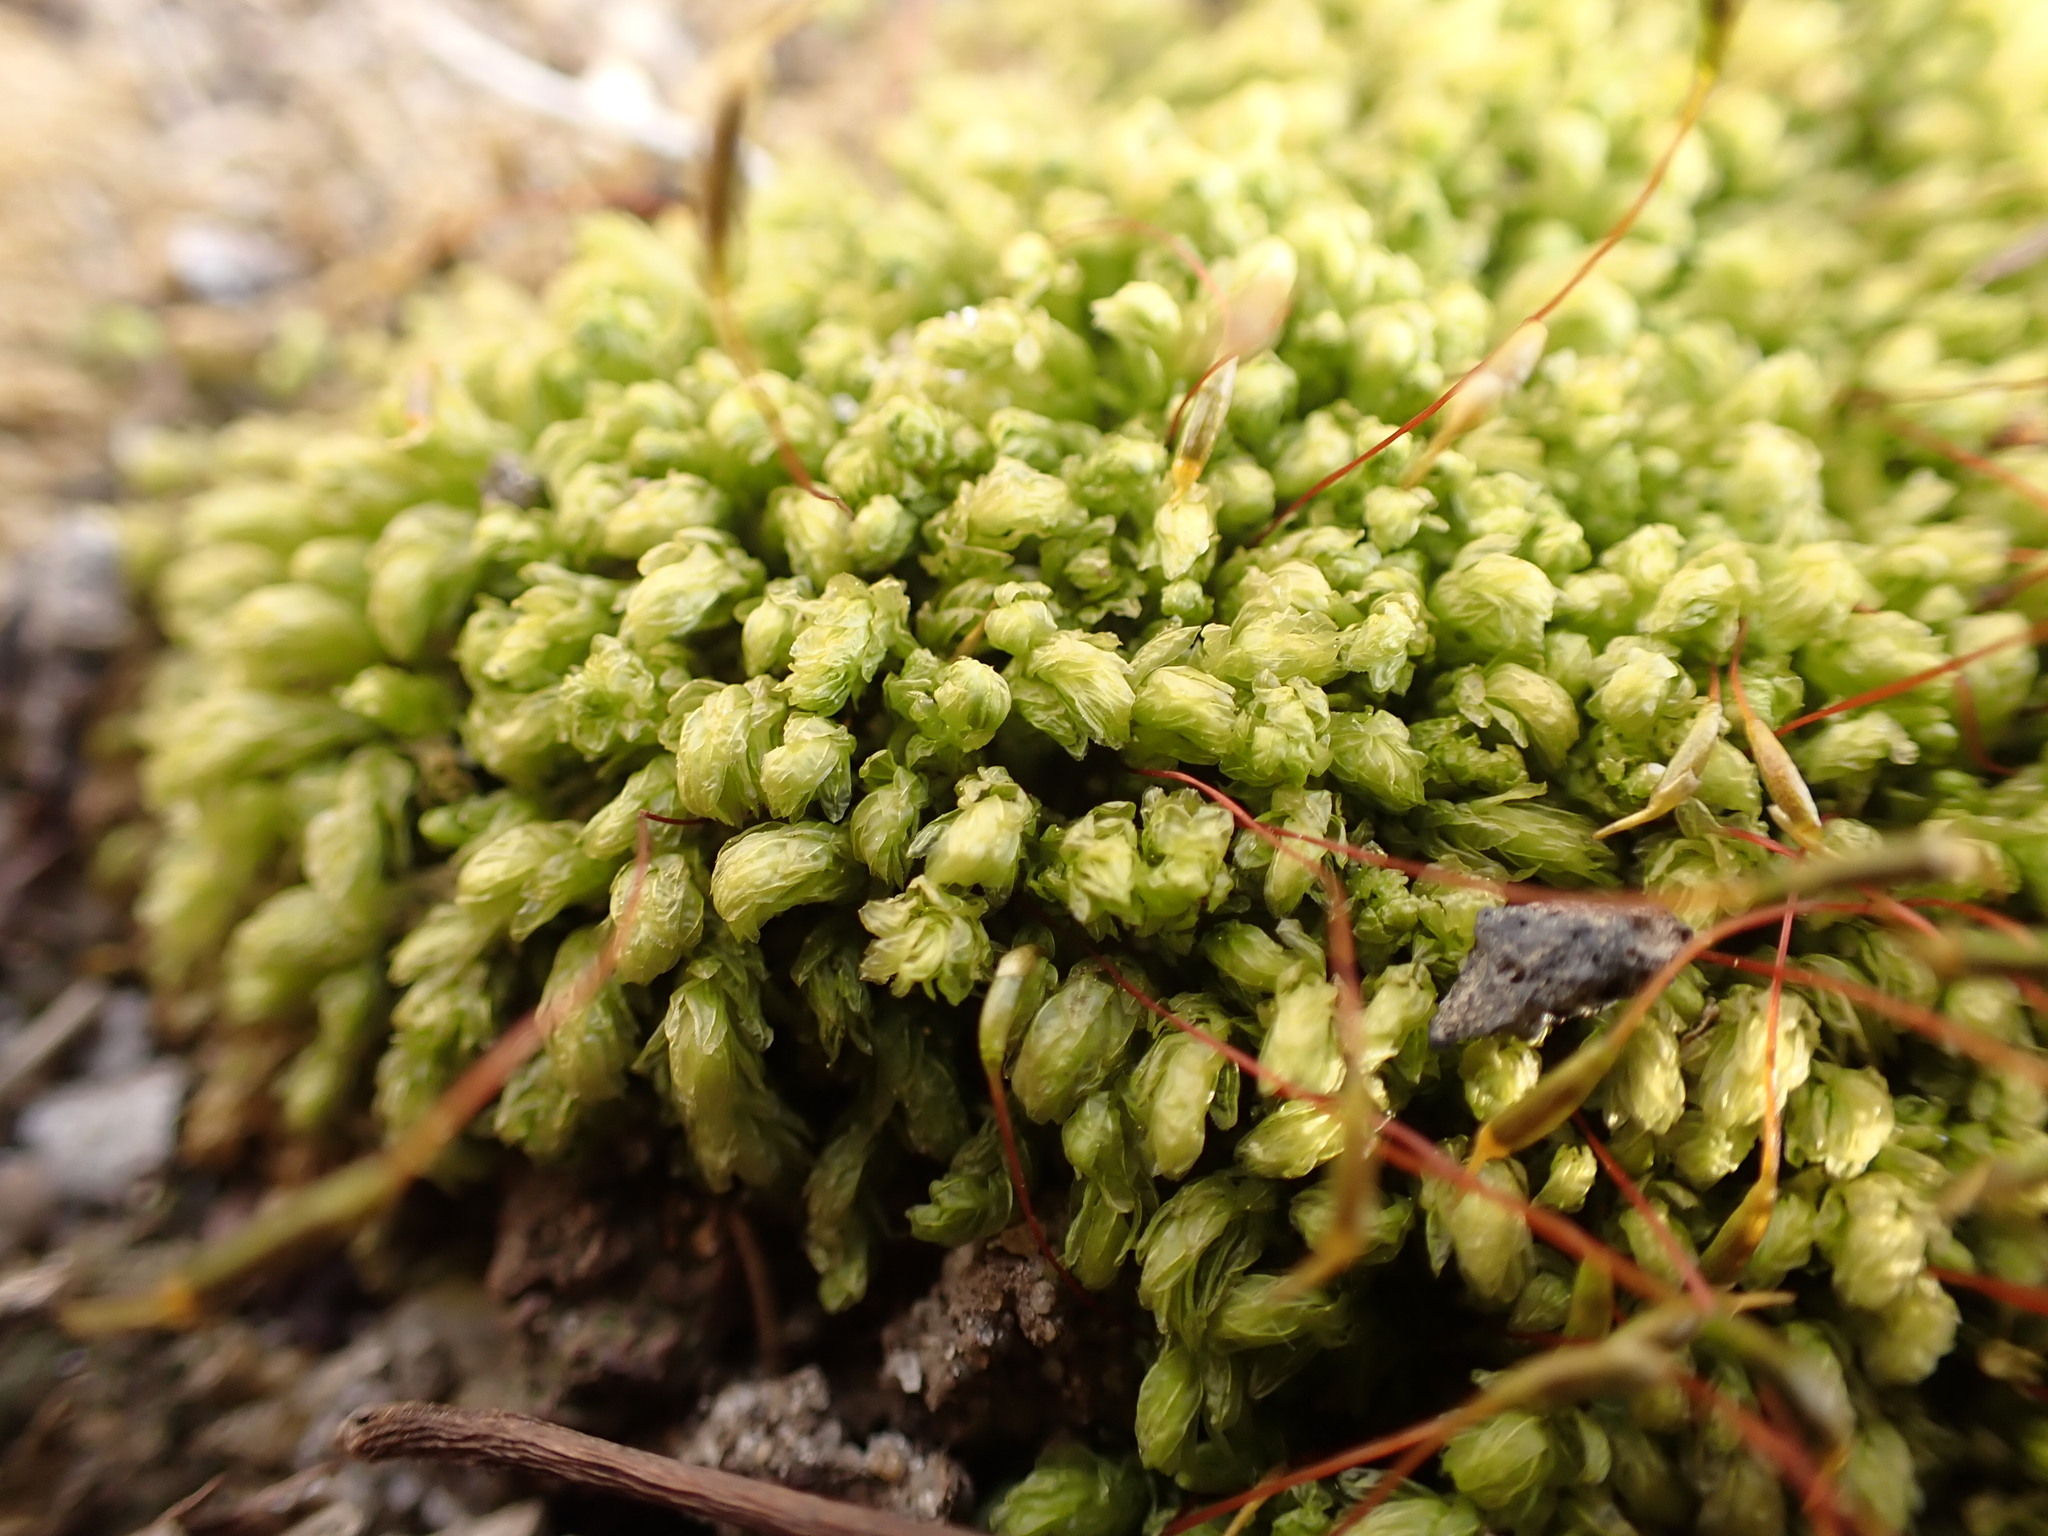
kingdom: Plantae
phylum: Bryophyta
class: Bryopsida
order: Aulacomniales
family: Aulacomniaceae
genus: Aulacomnium
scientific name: Aulacomnium heterostichum
